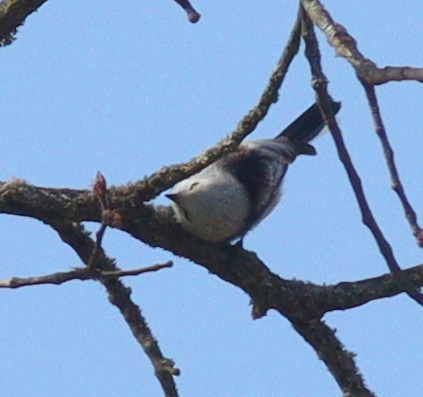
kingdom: Animalia
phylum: Chordata
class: Aves
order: Passeriformes
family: Aegithalidae
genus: Aegithalos
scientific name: Aegithalos caudatus
